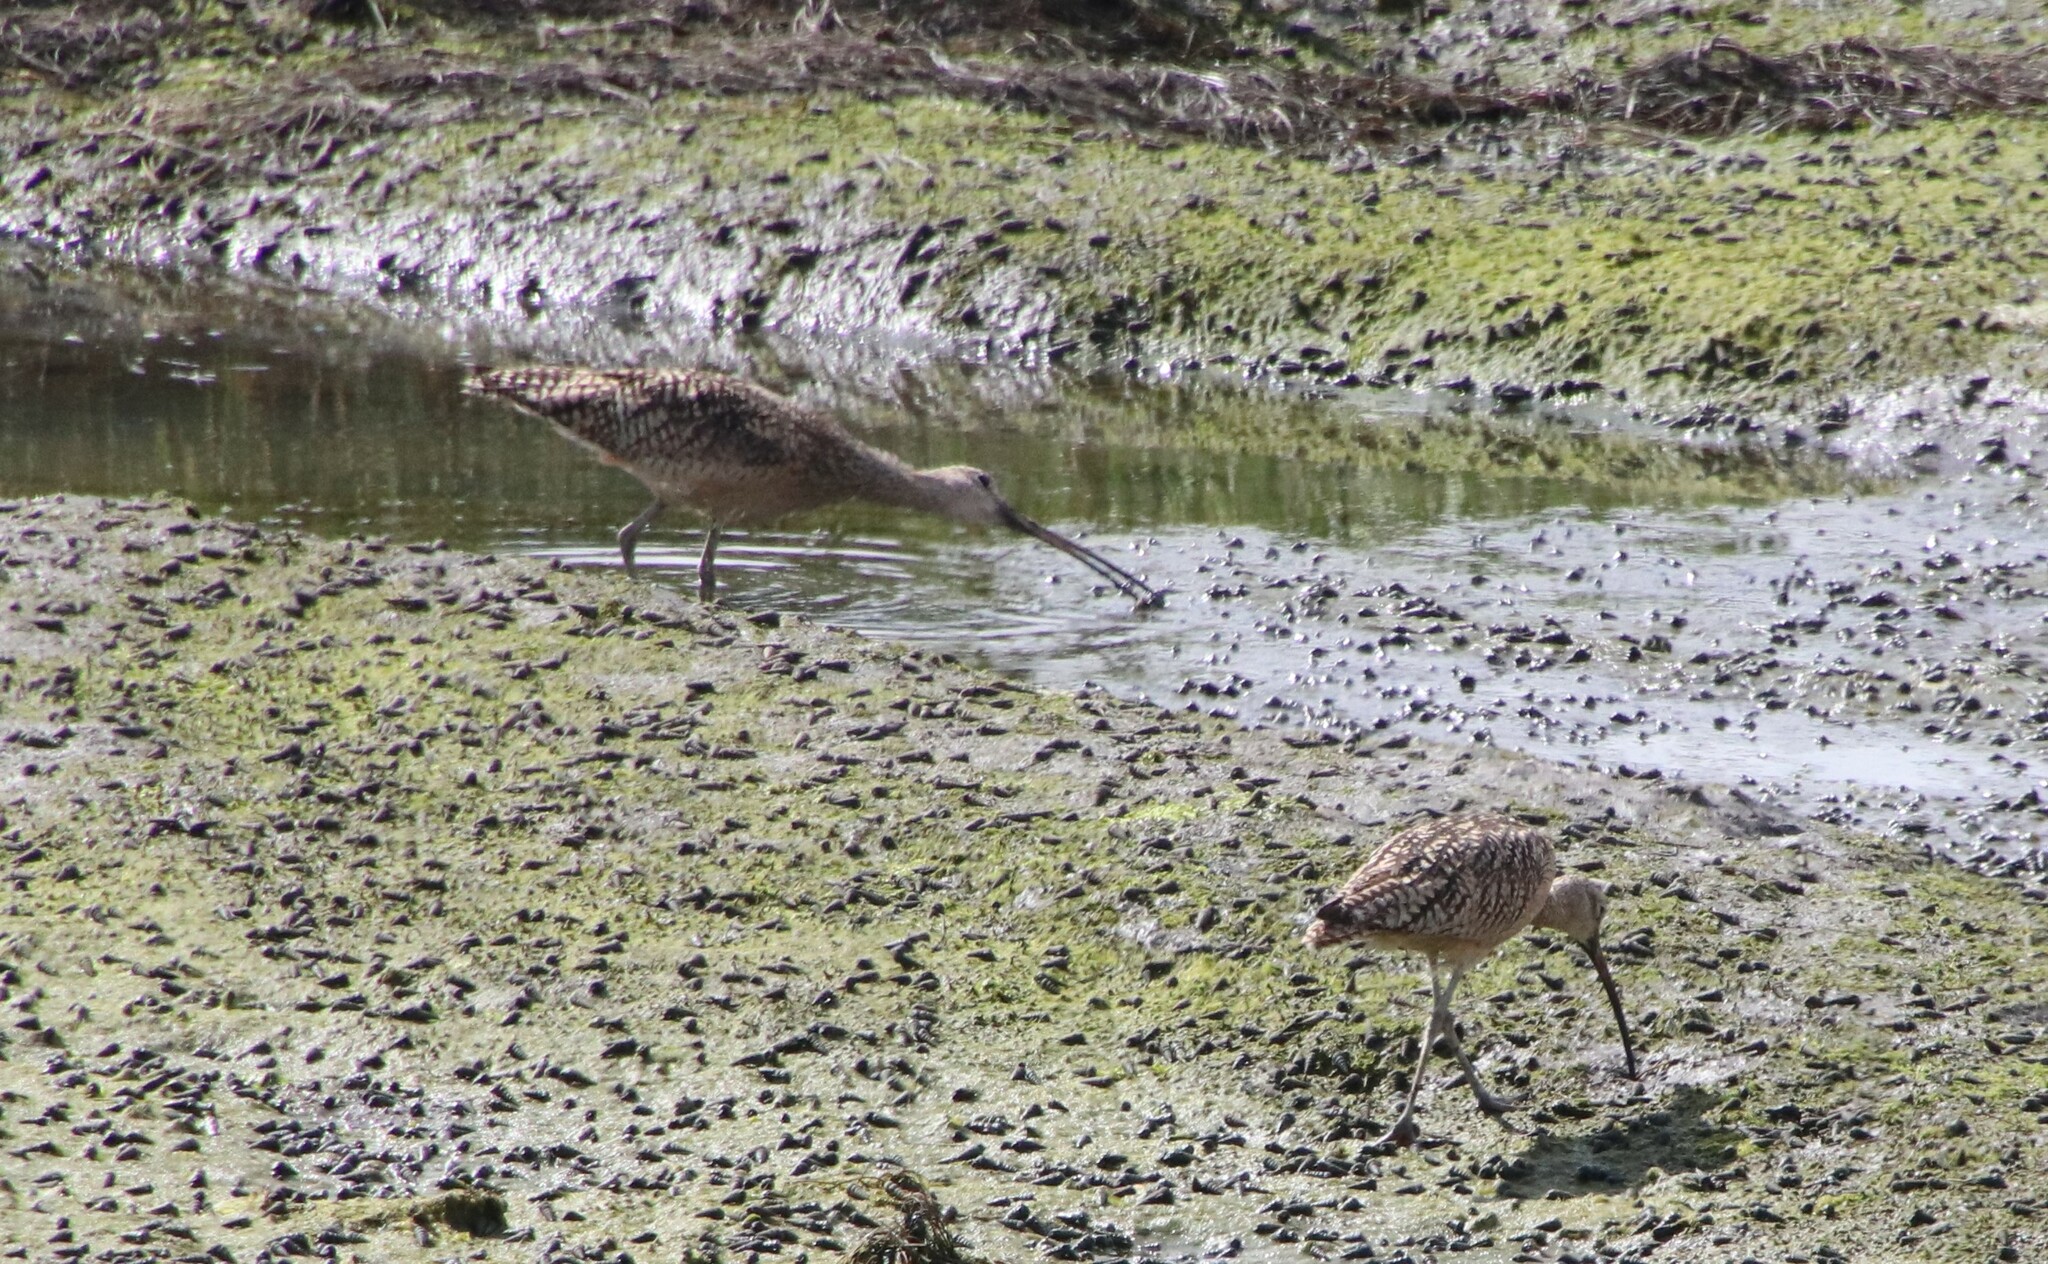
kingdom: Animalia
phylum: Chordata
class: Aves
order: Charadriiformes
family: Scolopacidae
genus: Numenius
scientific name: Numenius americanus
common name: Long-billed curlew
